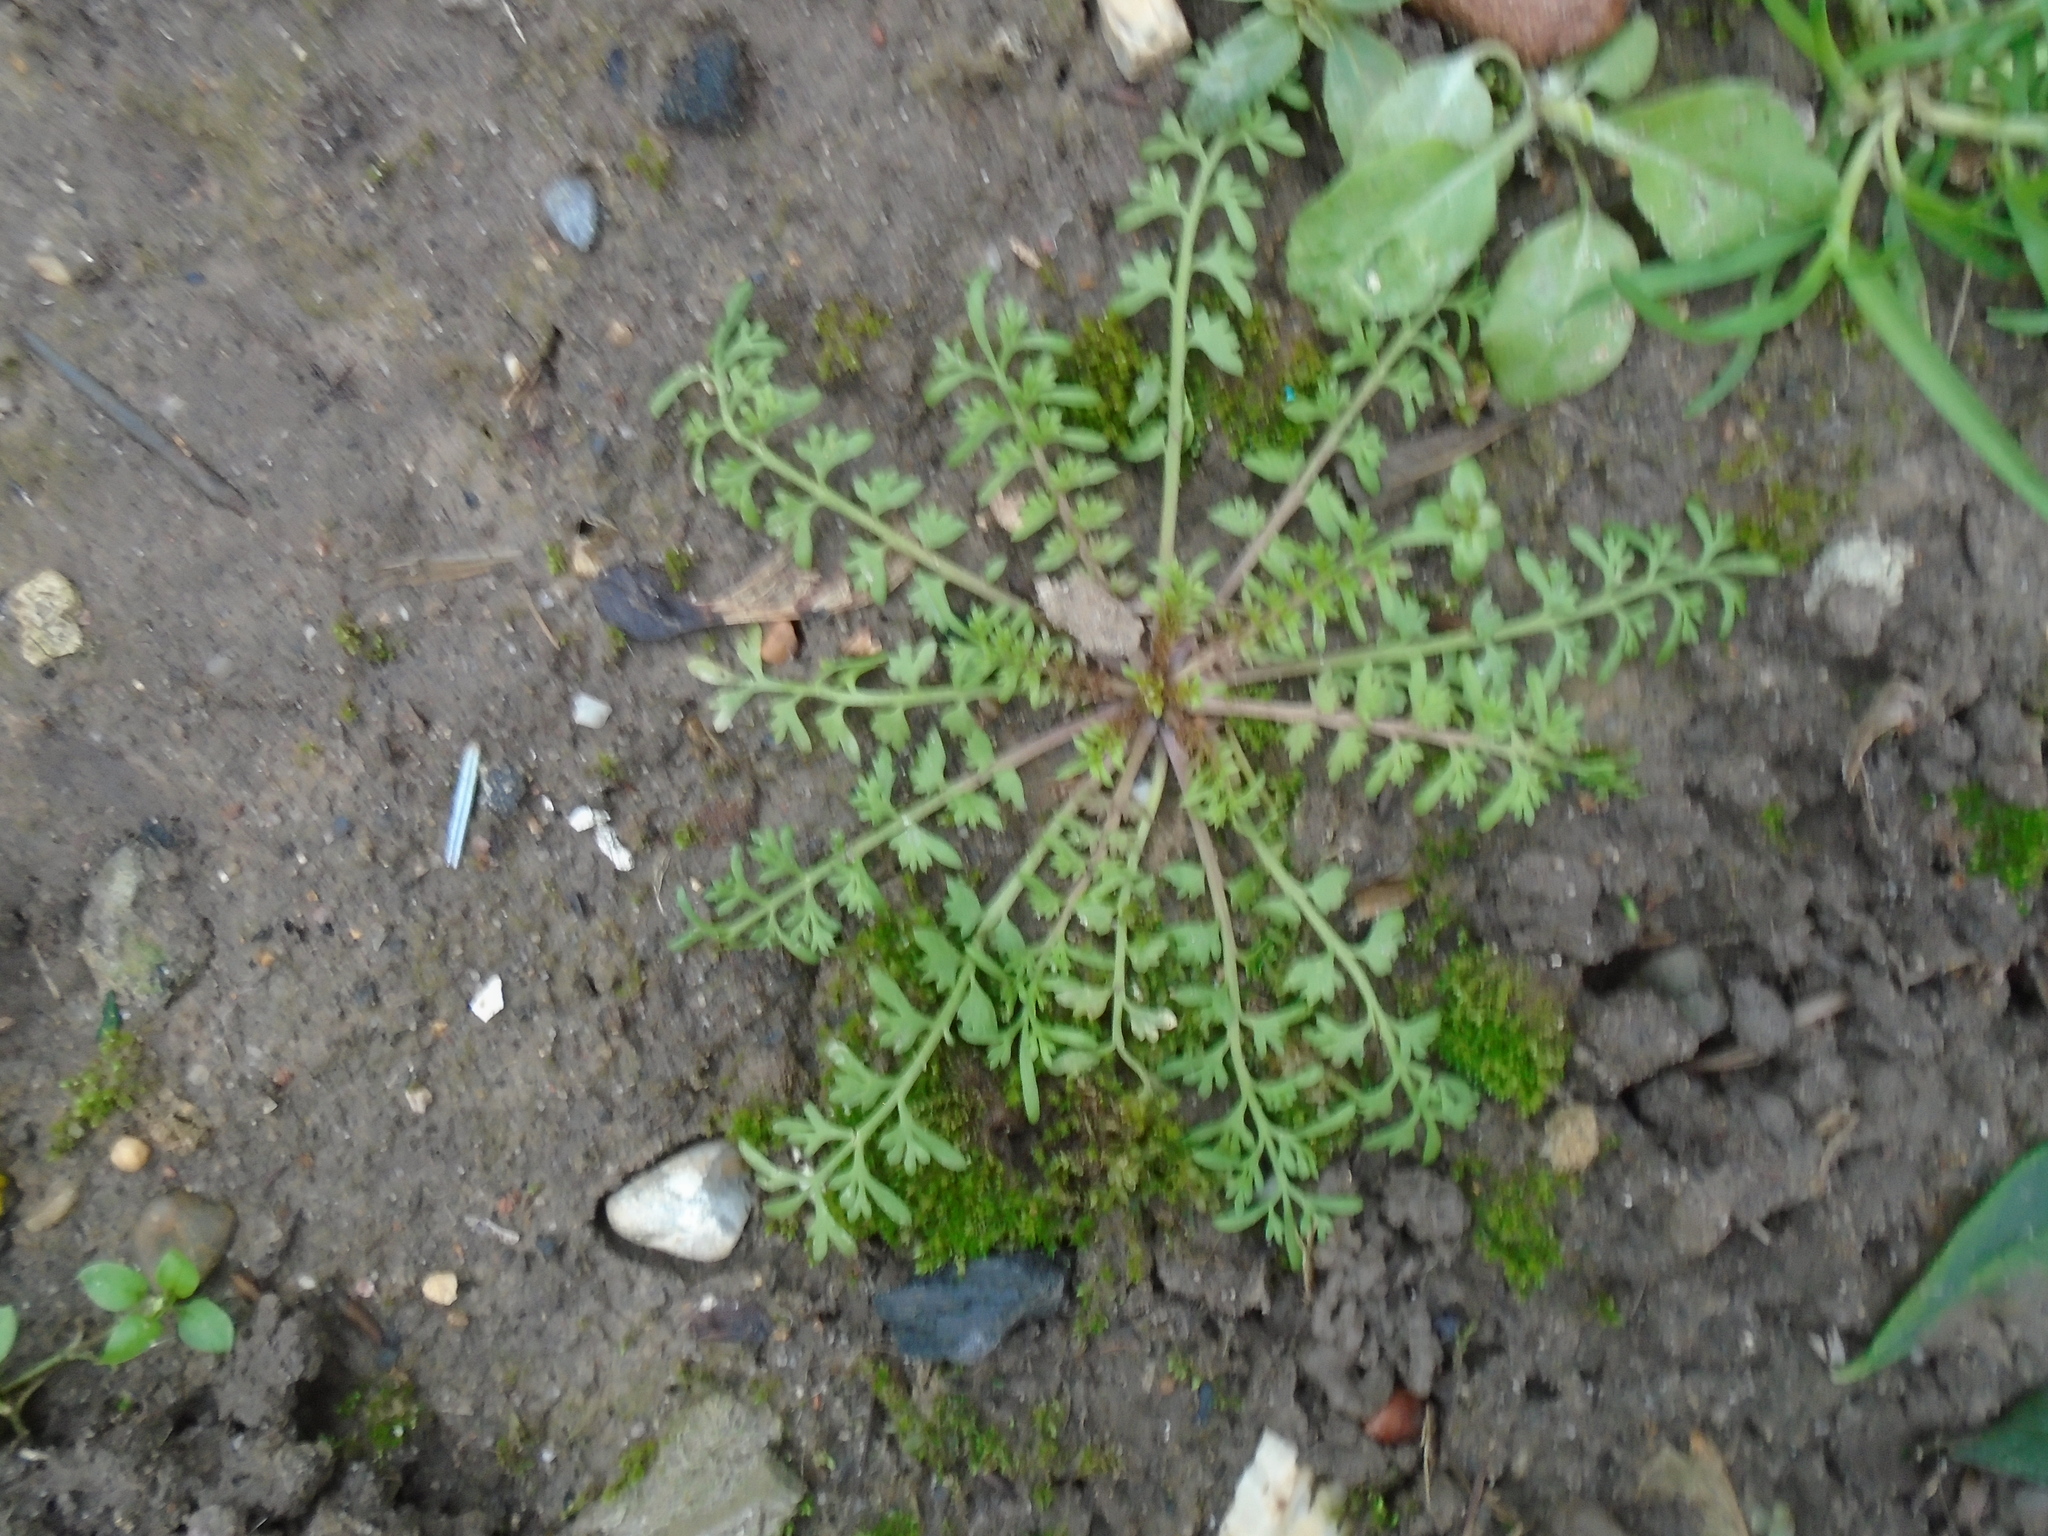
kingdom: Plantae
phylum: Tracheophyta
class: Magnoliopsida
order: Brassicales
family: Brassicaceae
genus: Lepidium
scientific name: Lepidium didymum
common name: Lesser swinecress
